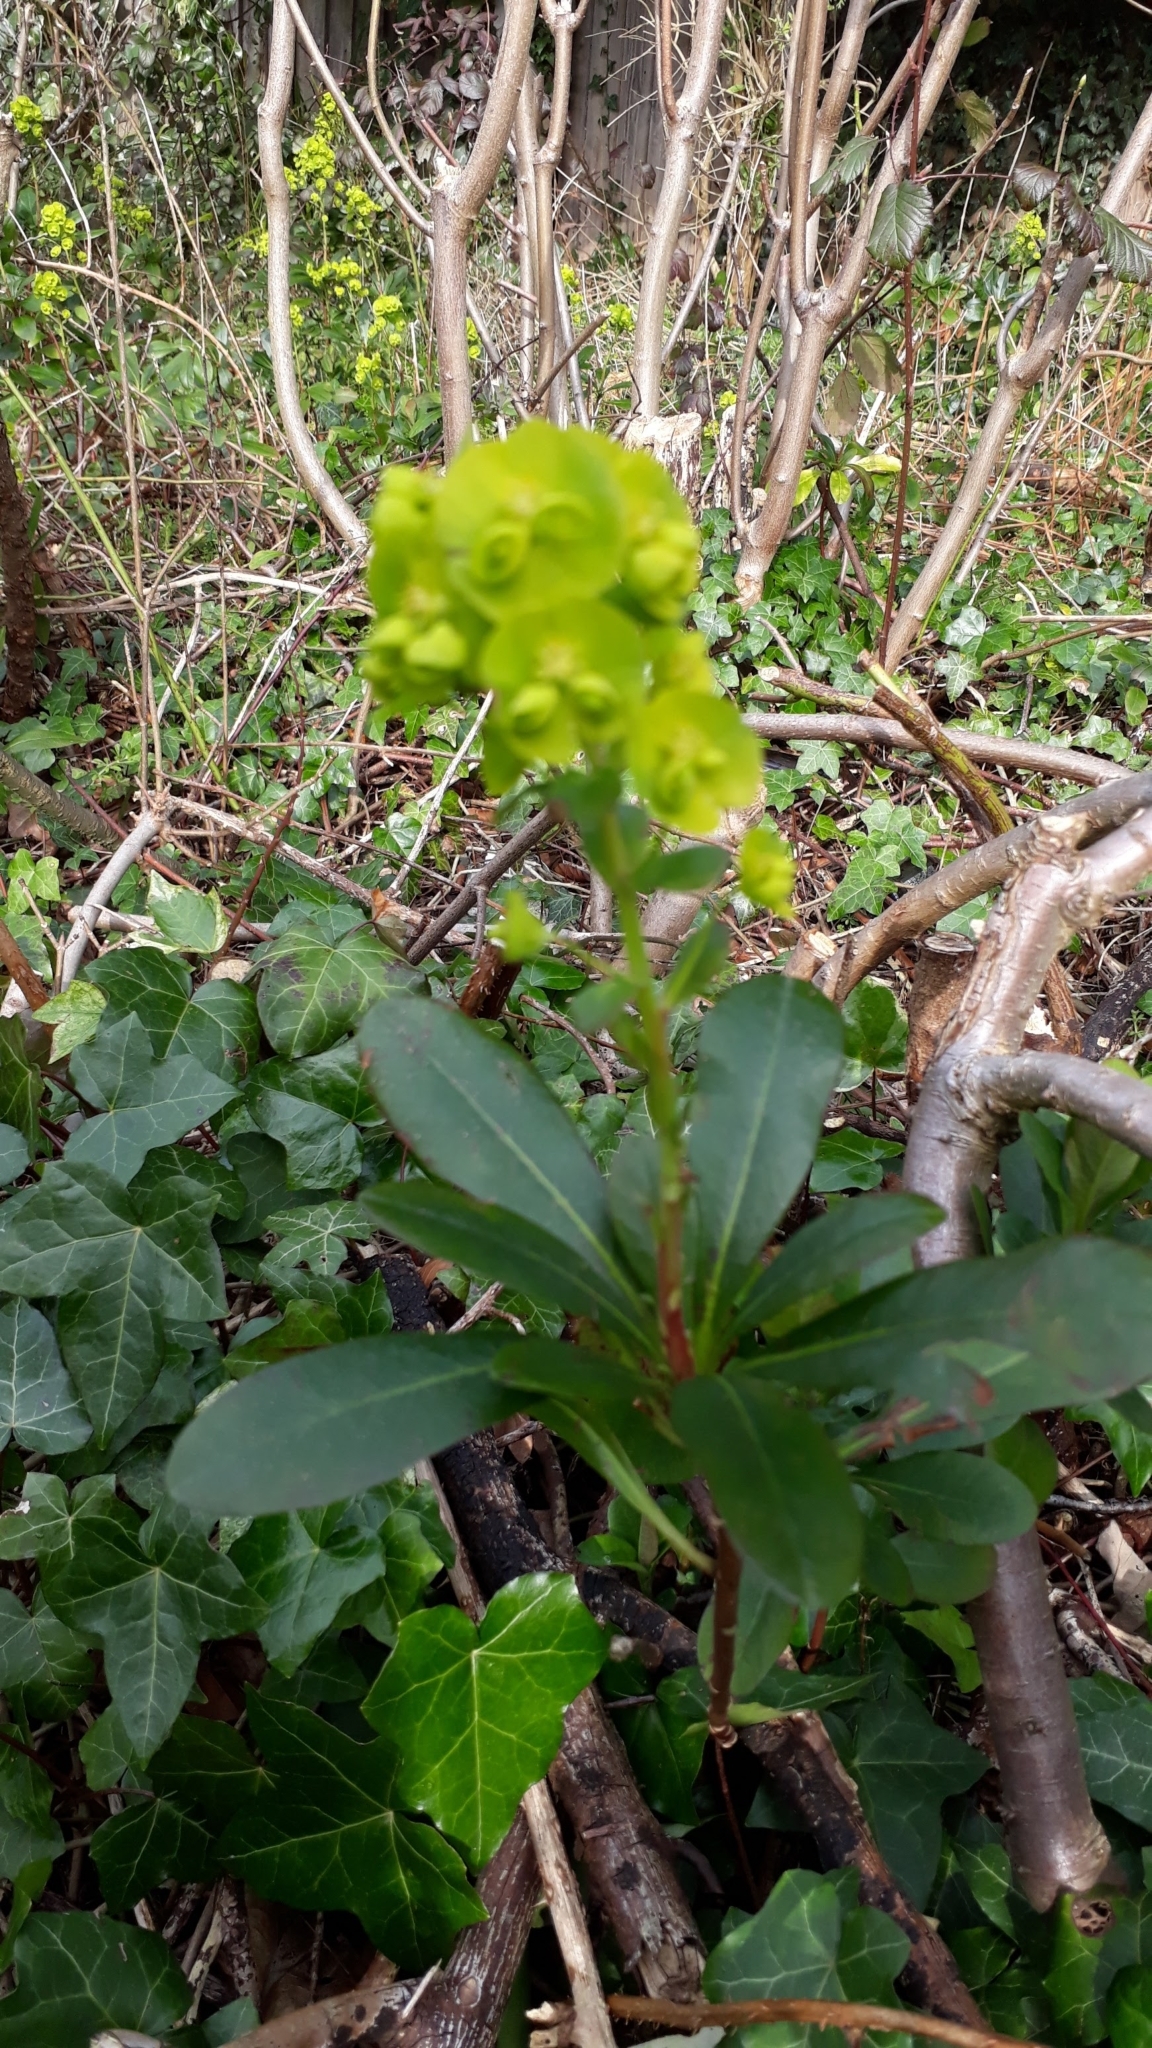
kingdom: Plantae
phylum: Tracheophyta
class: Magnoliopsida
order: Malpighiales
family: Euphorbiaceae
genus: Euphorbia
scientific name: Euphorbia amygdaloides
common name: Wood spurge
